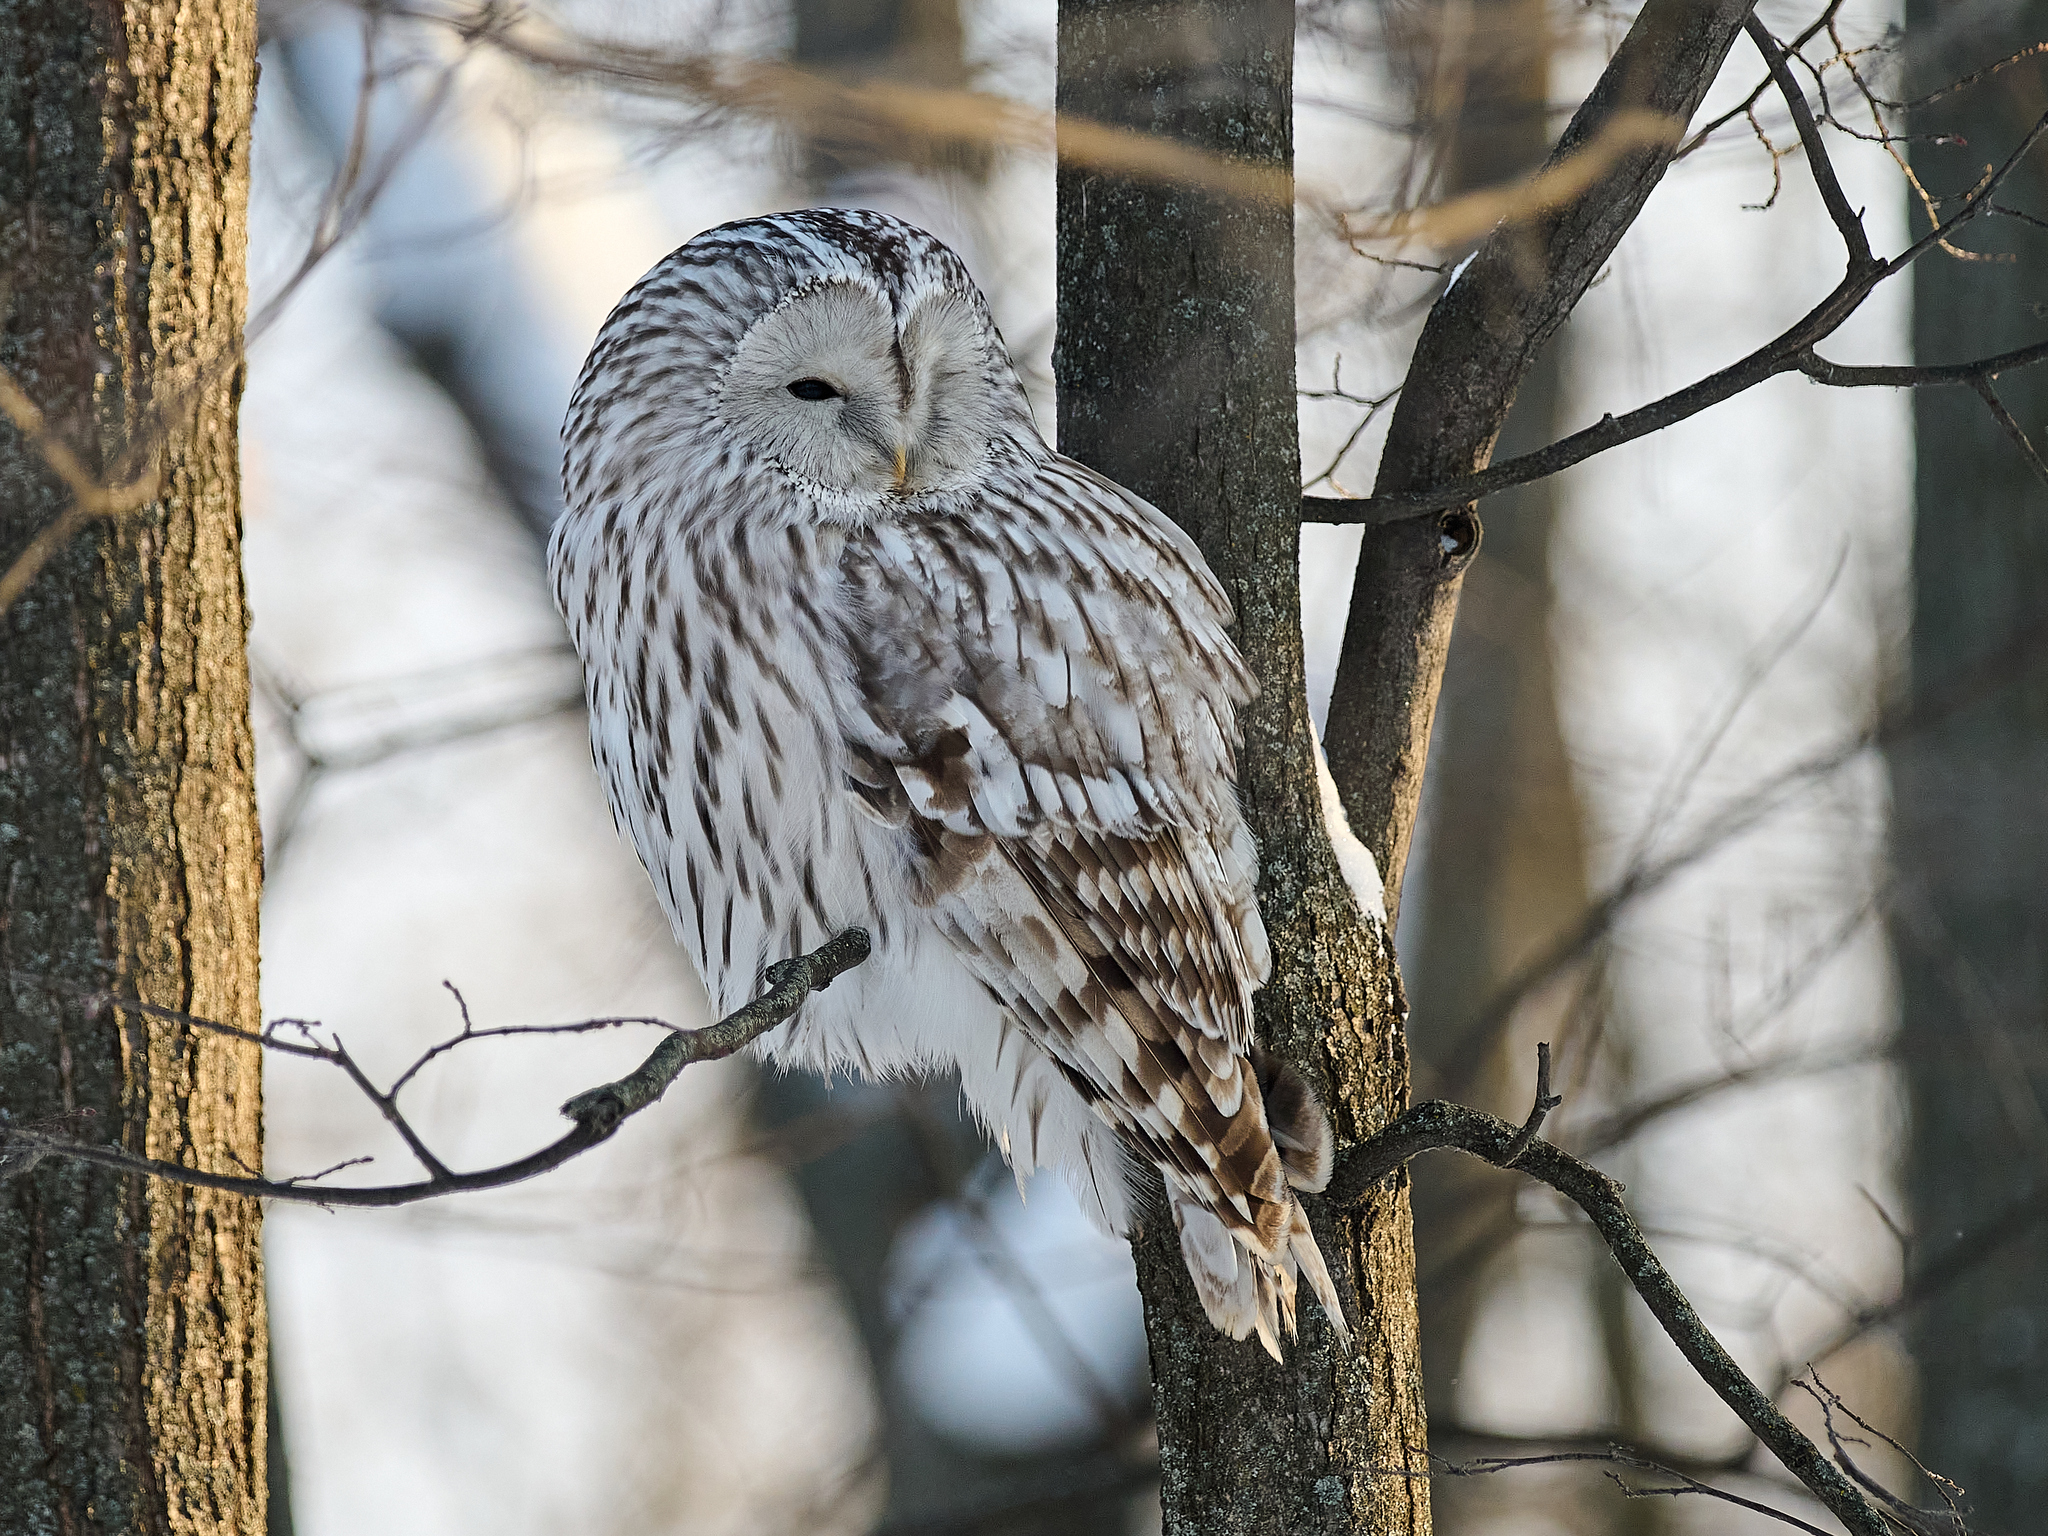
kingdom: Animalia
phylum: Chordata
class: Aves
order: Strigiformes
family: Strigidae
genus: Strix
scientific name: Strix uralensis
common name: Ural owl
